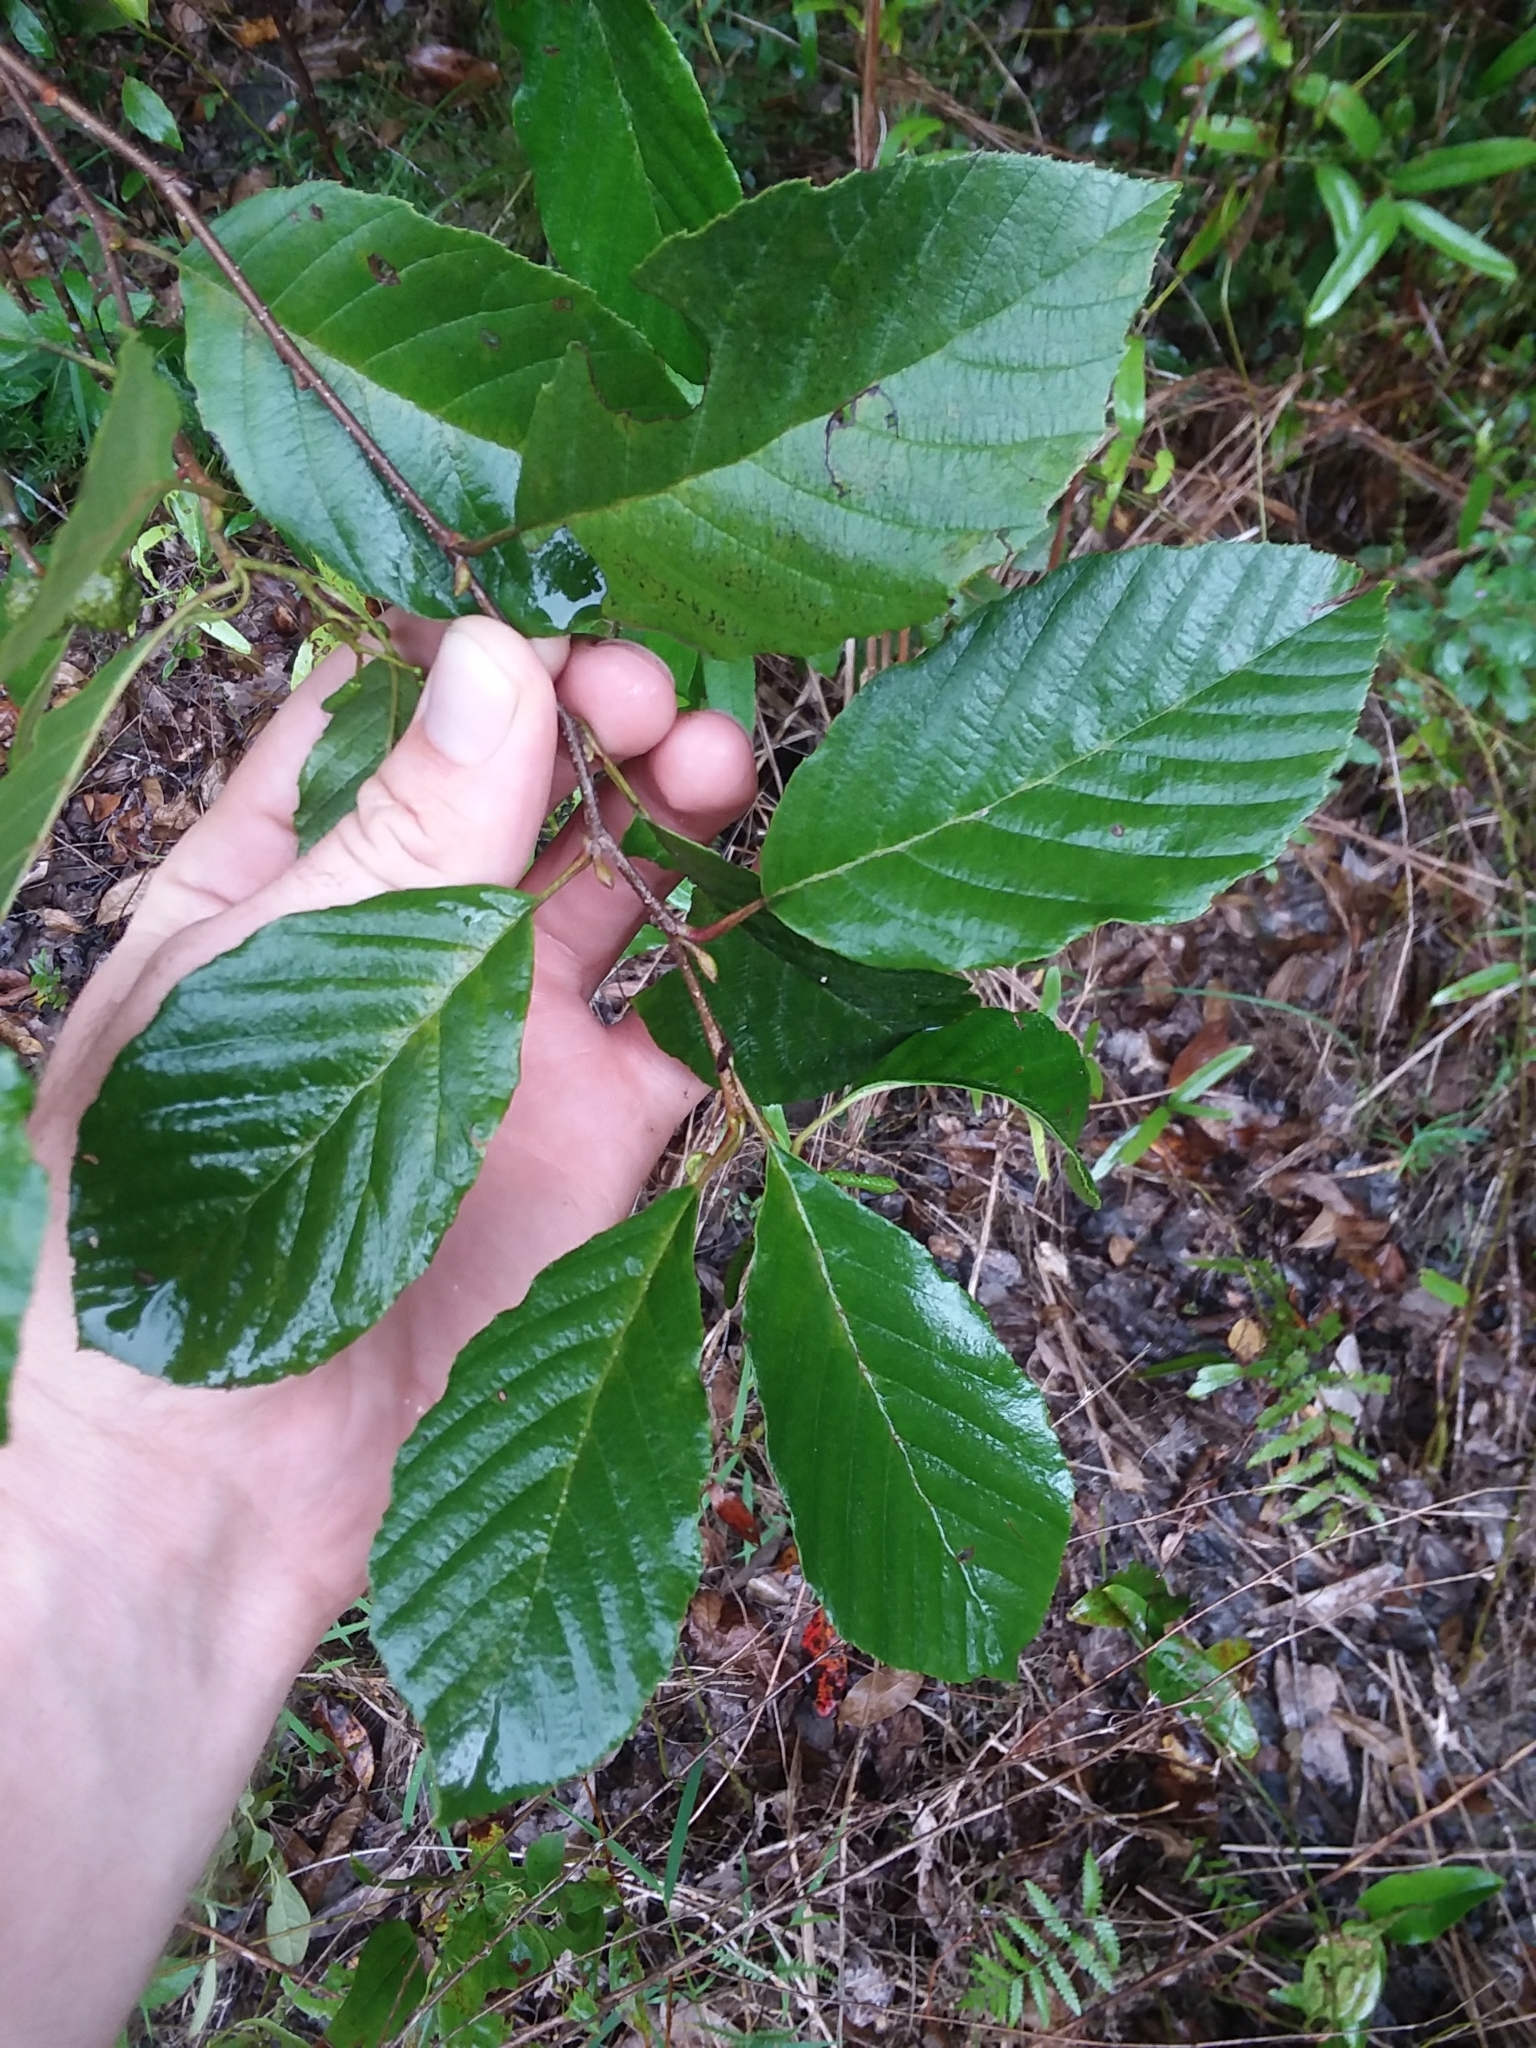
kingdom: Plantae
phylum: Tracheophyta
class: Magnoliopsida
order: Fagales
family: Betulaceae
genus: Alnus
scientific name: Alnus serrulata
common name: Hazel alder
